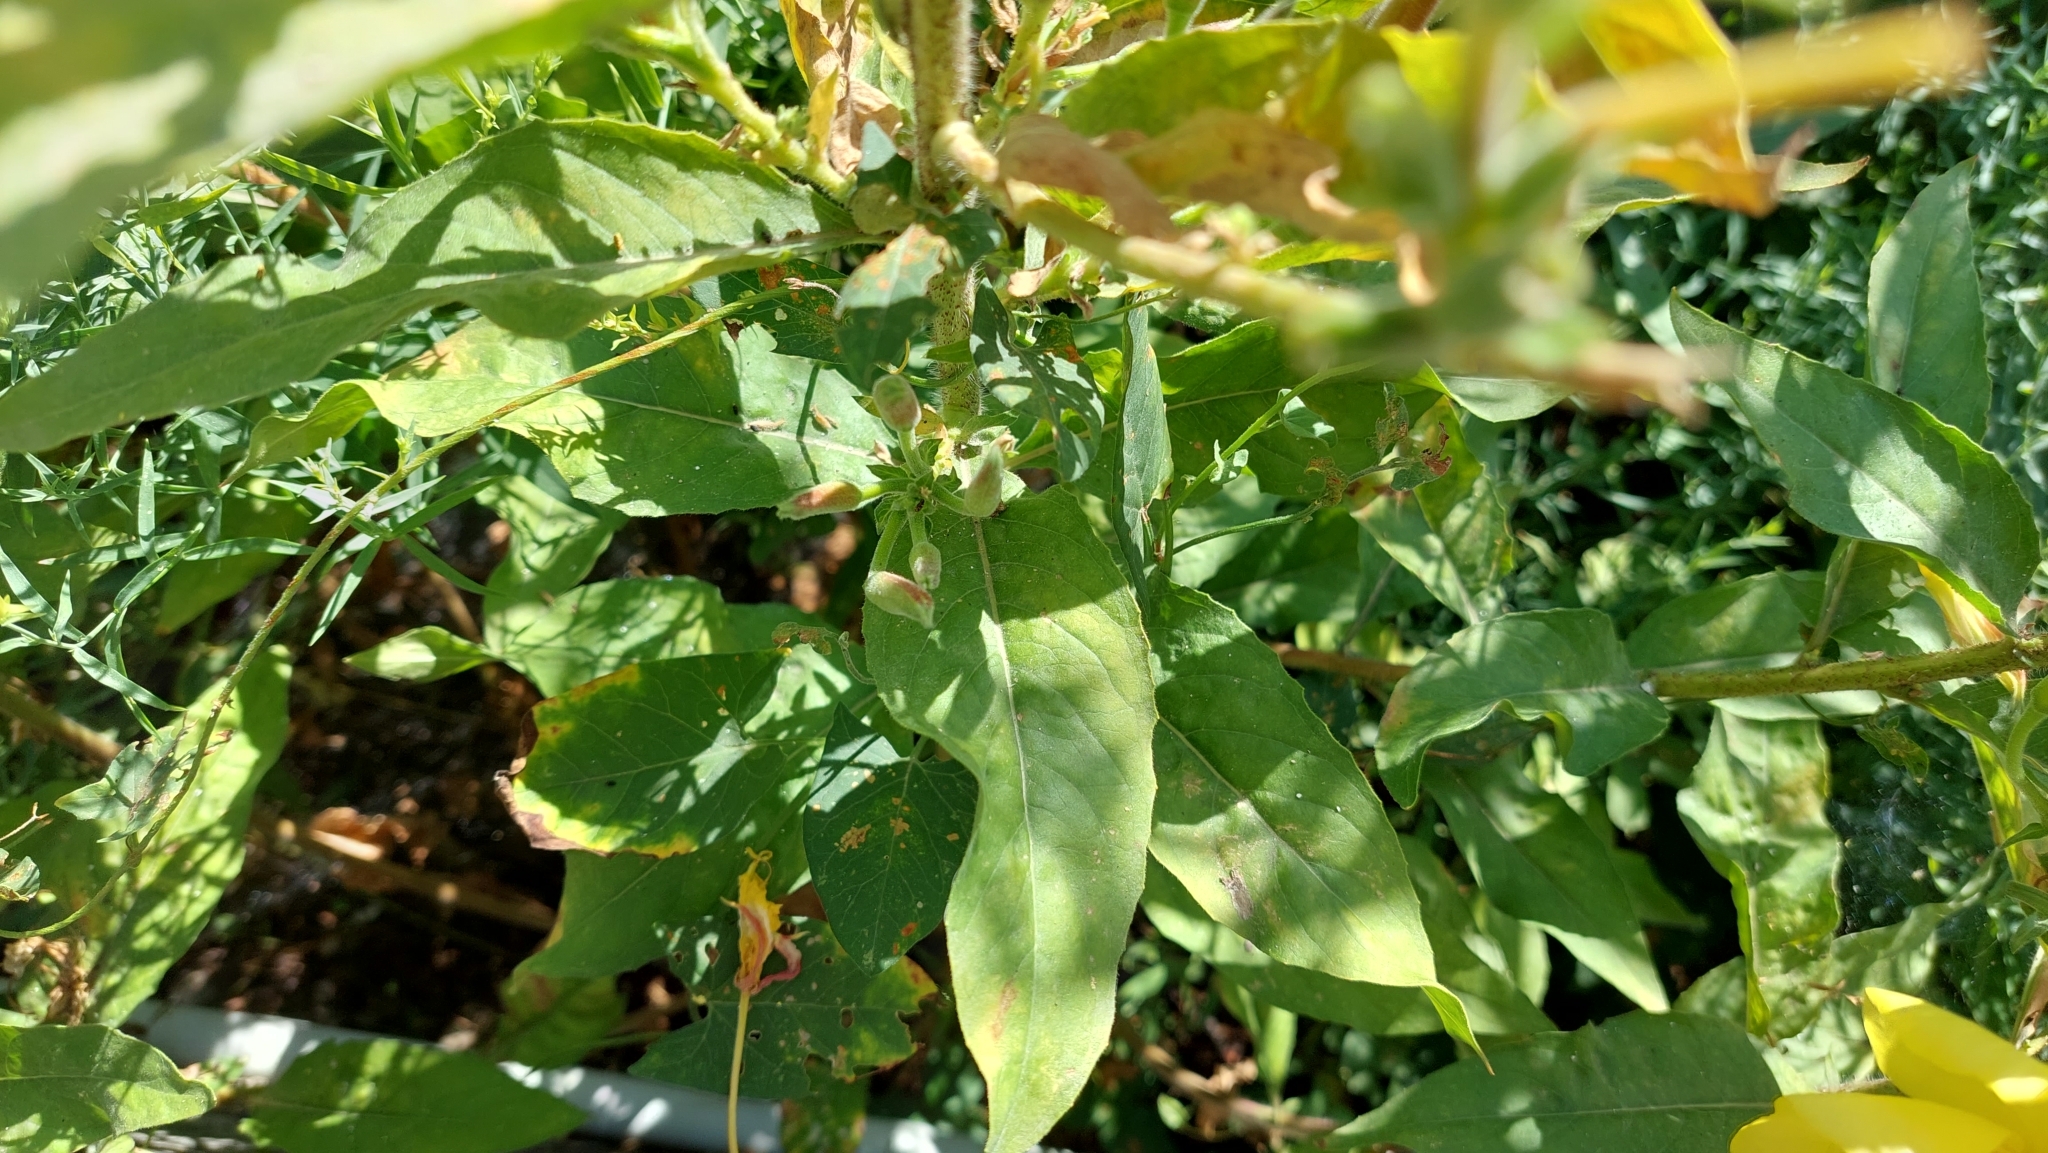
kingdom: Plantae
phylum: Tracheophyta
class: Magnoliopsida
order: Myrtales
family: Onagraceae
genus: Oenothera
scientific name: Oenothera glazioviana
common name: Large-flowered evening-primrose
